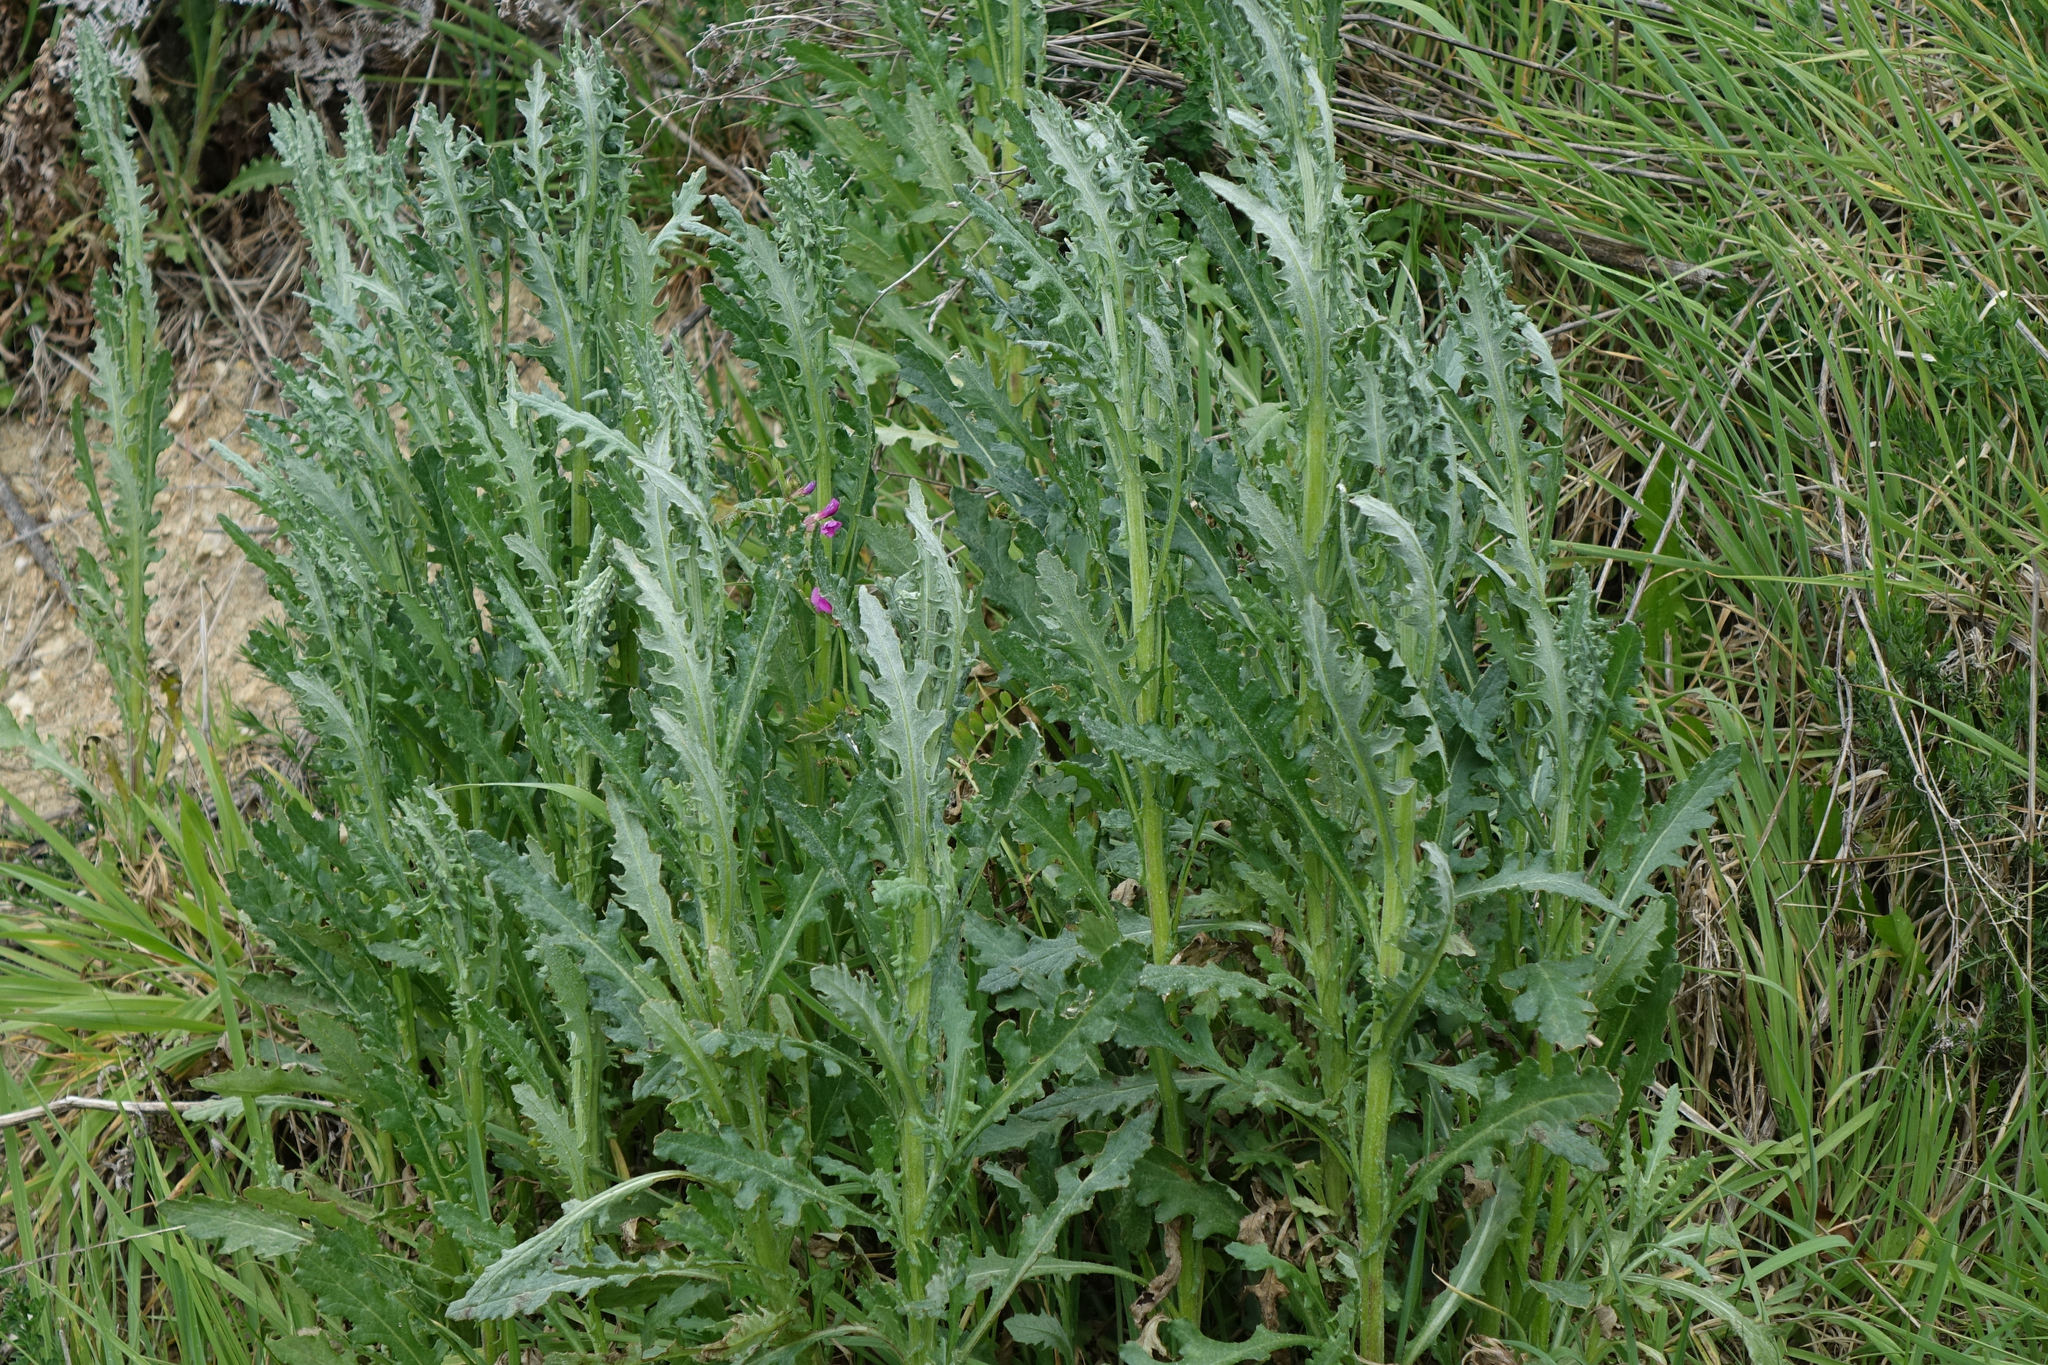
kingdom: Plantae
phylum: Tracheophyta
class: Magnoliopsida
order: Asterales
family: Asteraceae
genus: Senecio
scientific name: Senecio glomeratus
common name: Cutleaf burnweed
